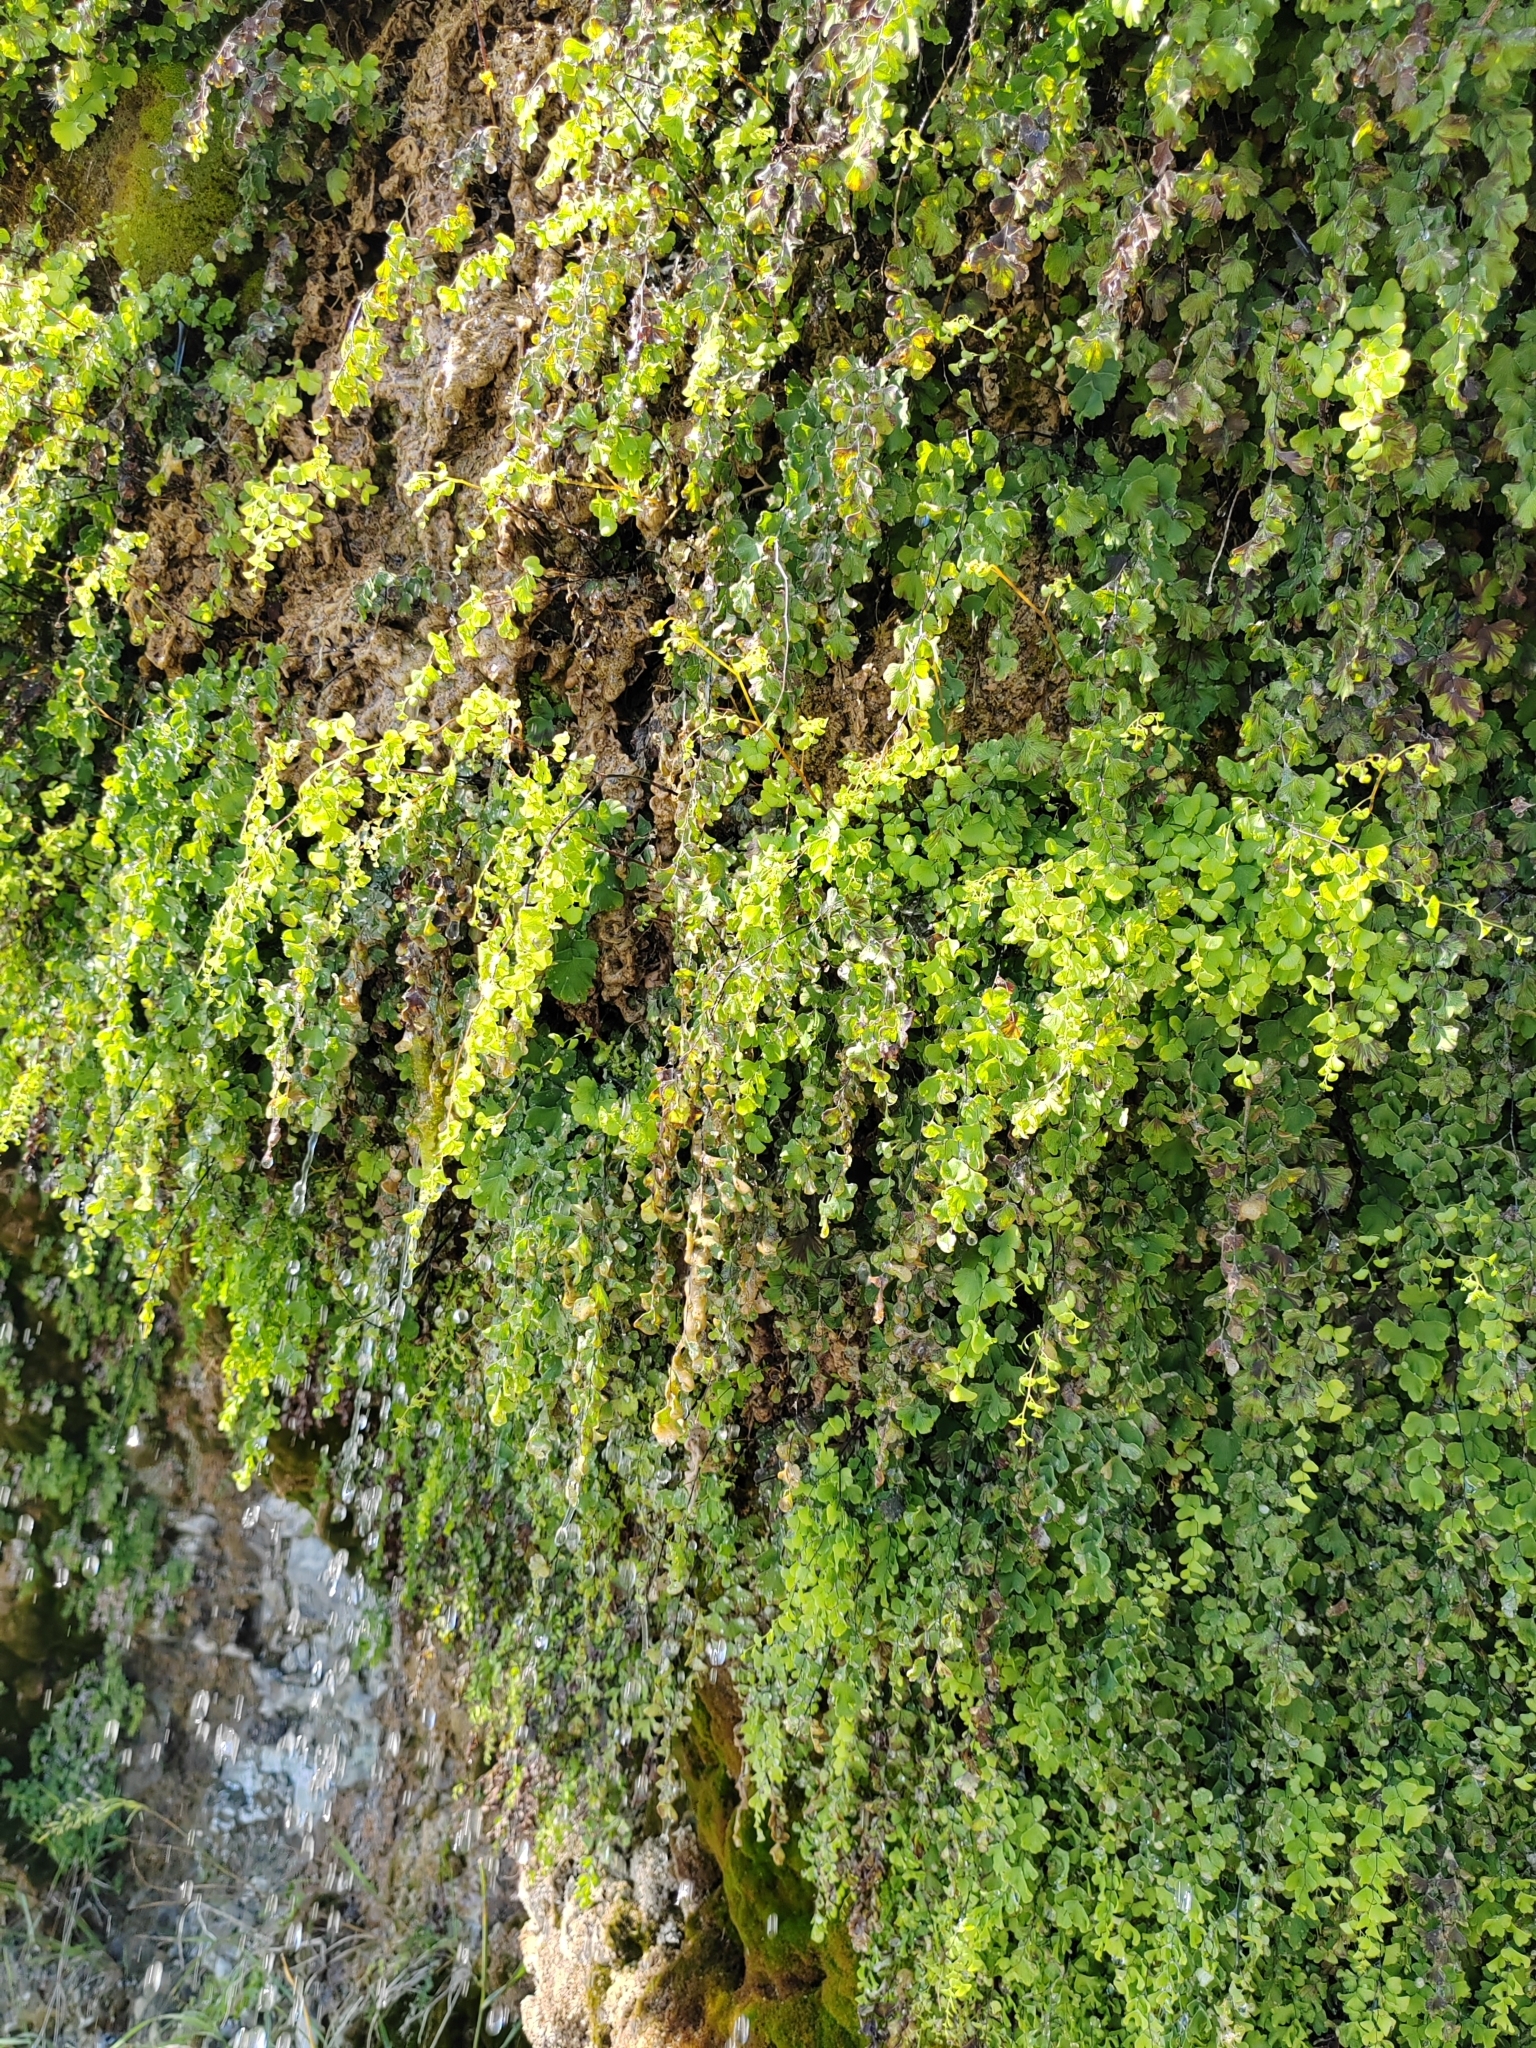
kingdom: Plantae
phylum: Tracheophyta
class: Polypodiopsida
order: Polypodiales
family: Pteridaceae
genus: Adiantum
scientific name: Adiantum capillus-veneris
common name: Maidenhair fern
